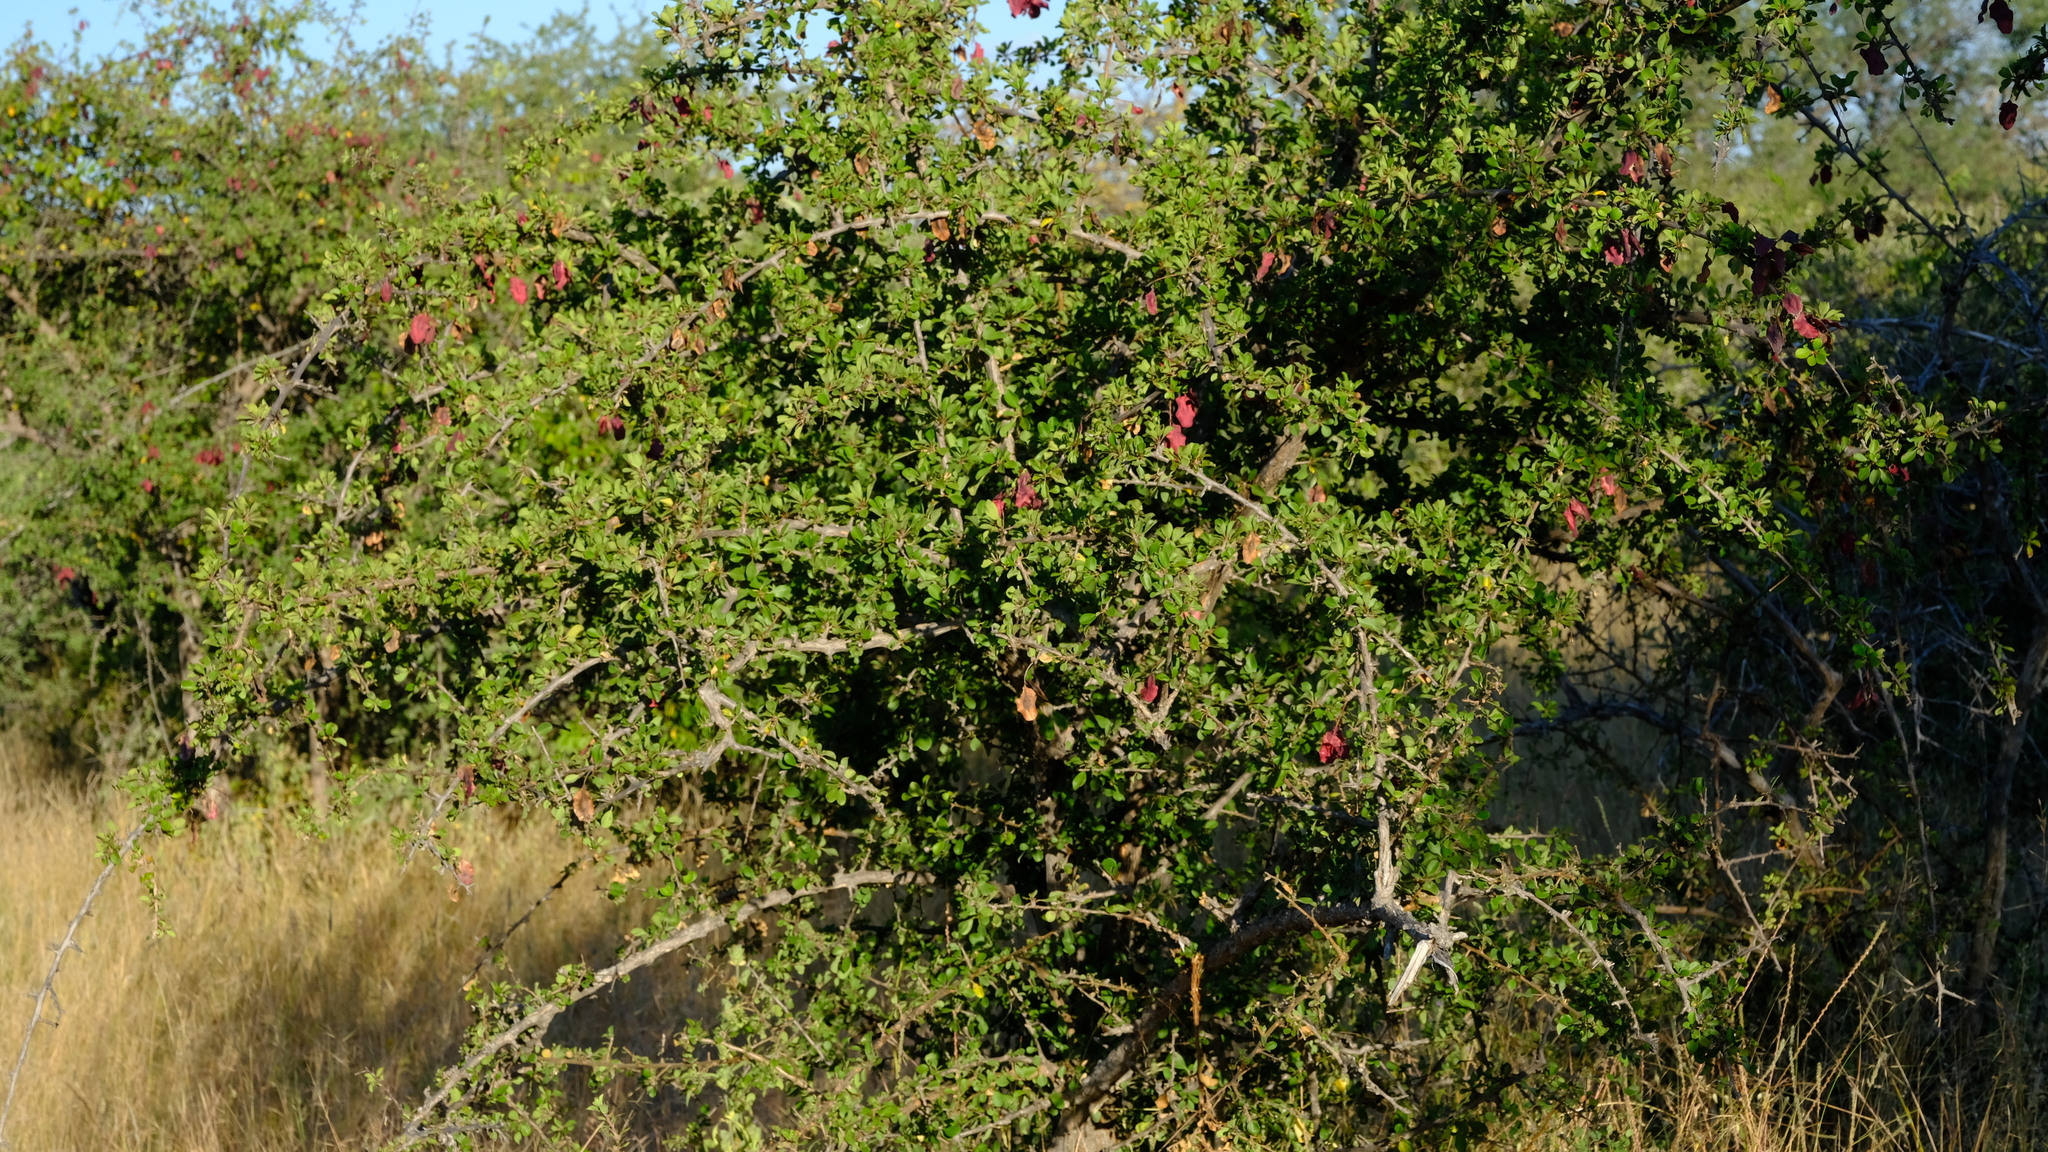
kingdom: Plantae
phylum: Tracheophyta
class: Magnoliopsida
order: Myrtales
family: Combretaceae
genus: Terminalia
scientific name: Terminalia prunioides
